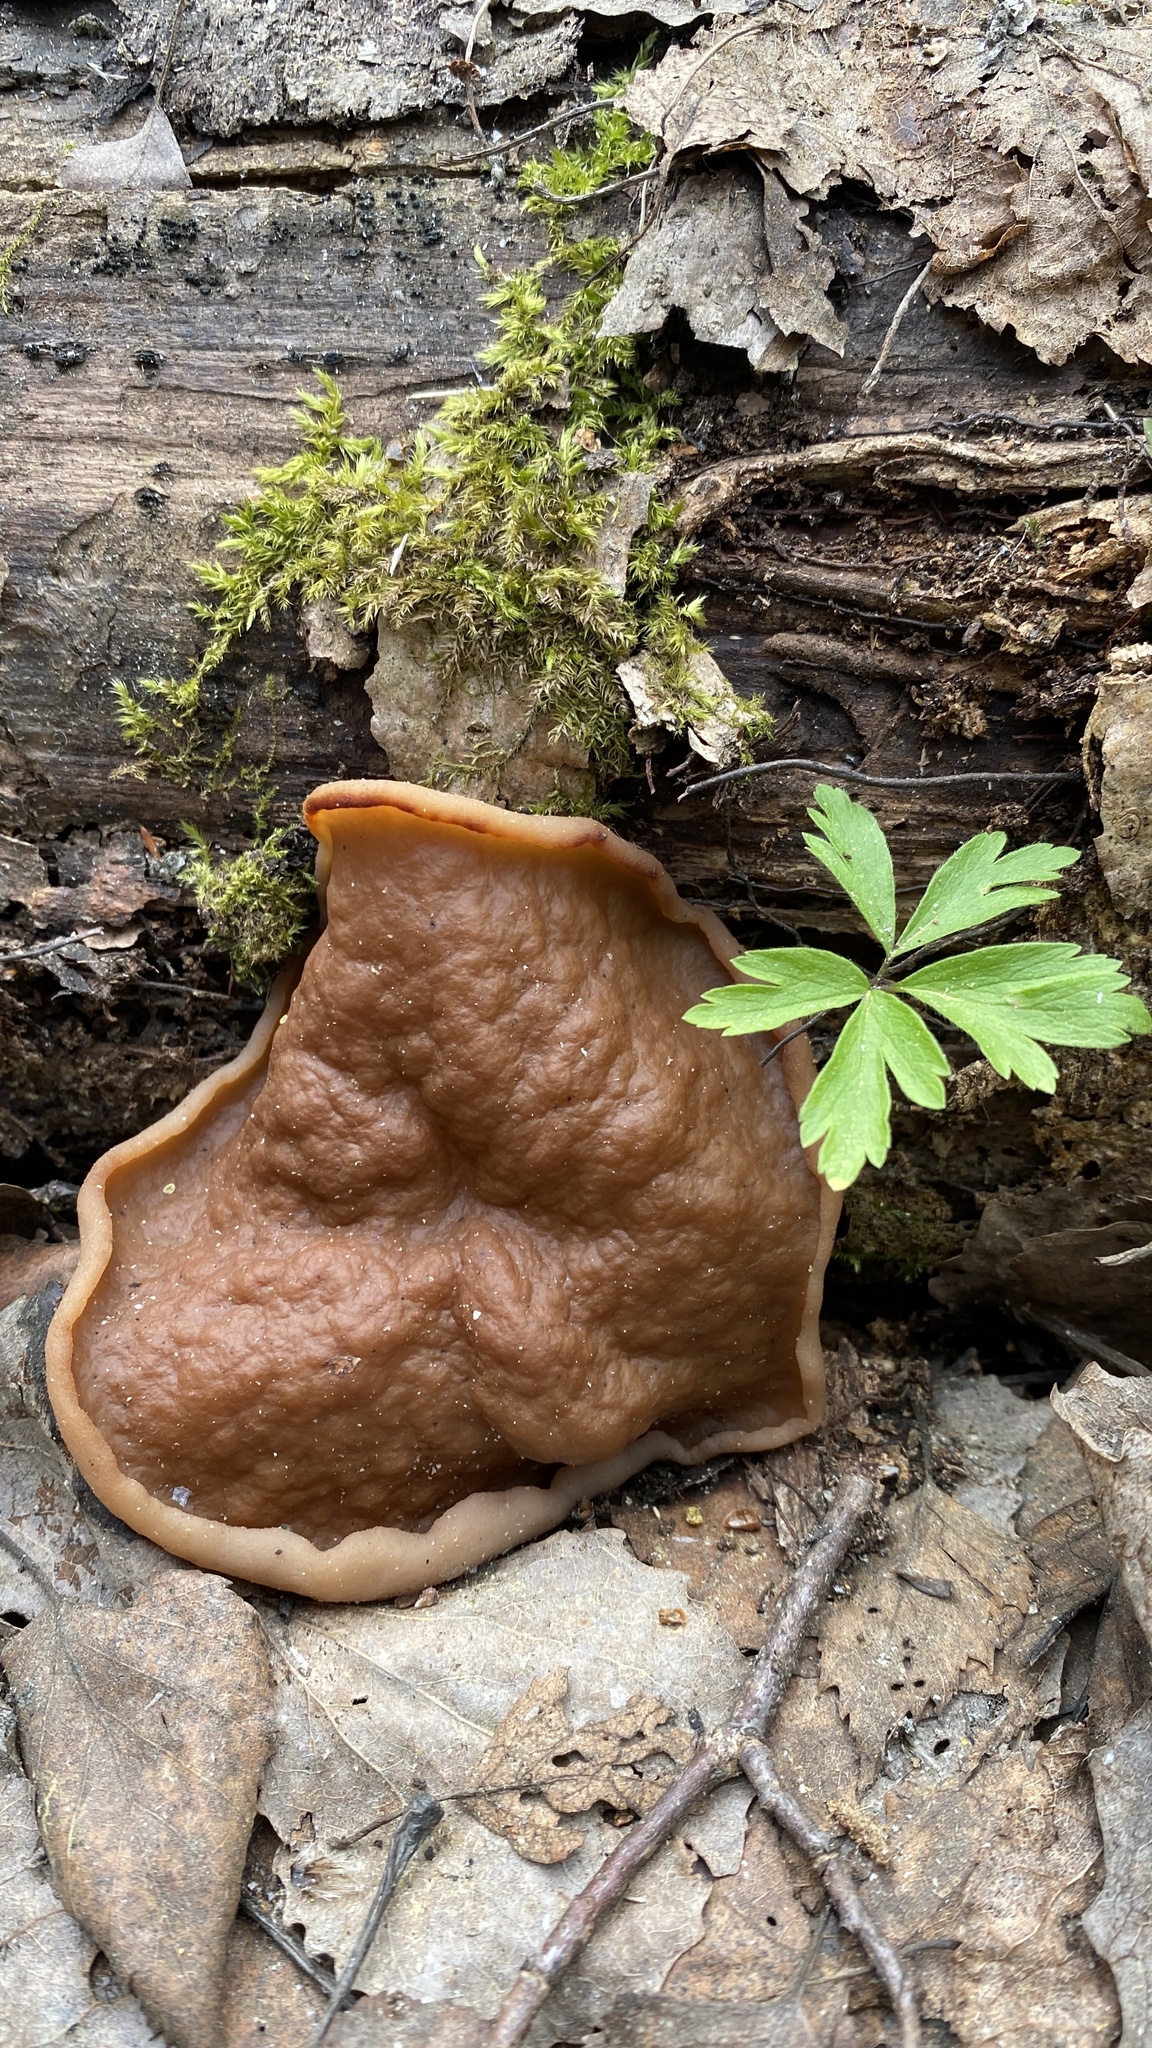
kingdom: Fungi
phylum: Ascomycota
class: Pezizomycetes
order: Pezizales
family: Discinaceae
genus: Discina
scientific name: Discina ancilis
